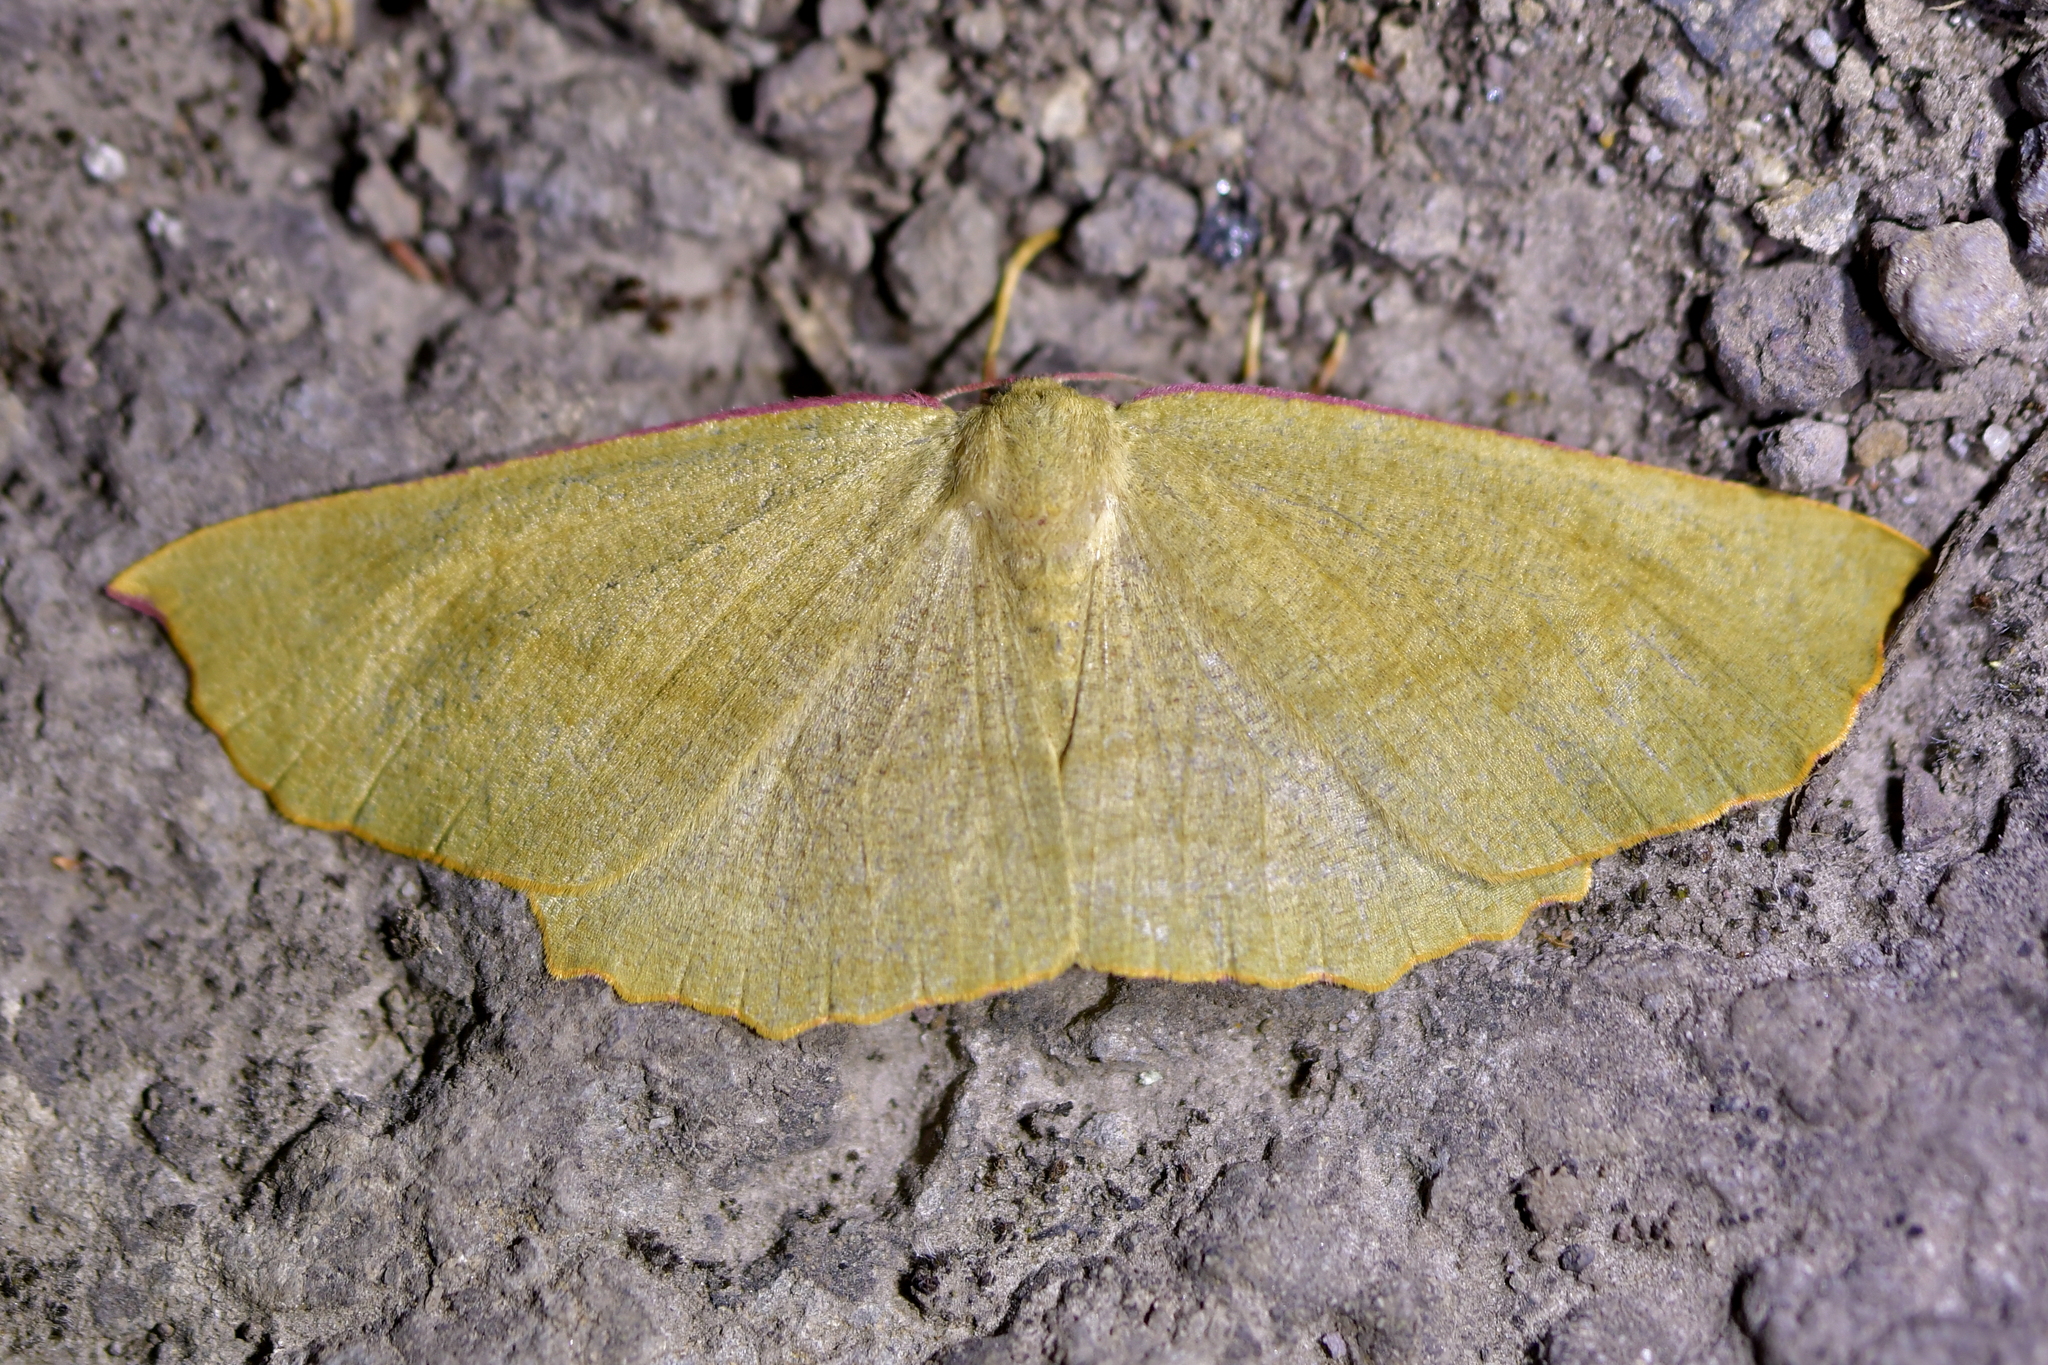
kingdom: Animalia
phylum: Arthropoda
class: Insecta
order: Lepidoptera
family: Geometridae
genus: Xyridacma
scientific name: Xyridacma alectoraria
